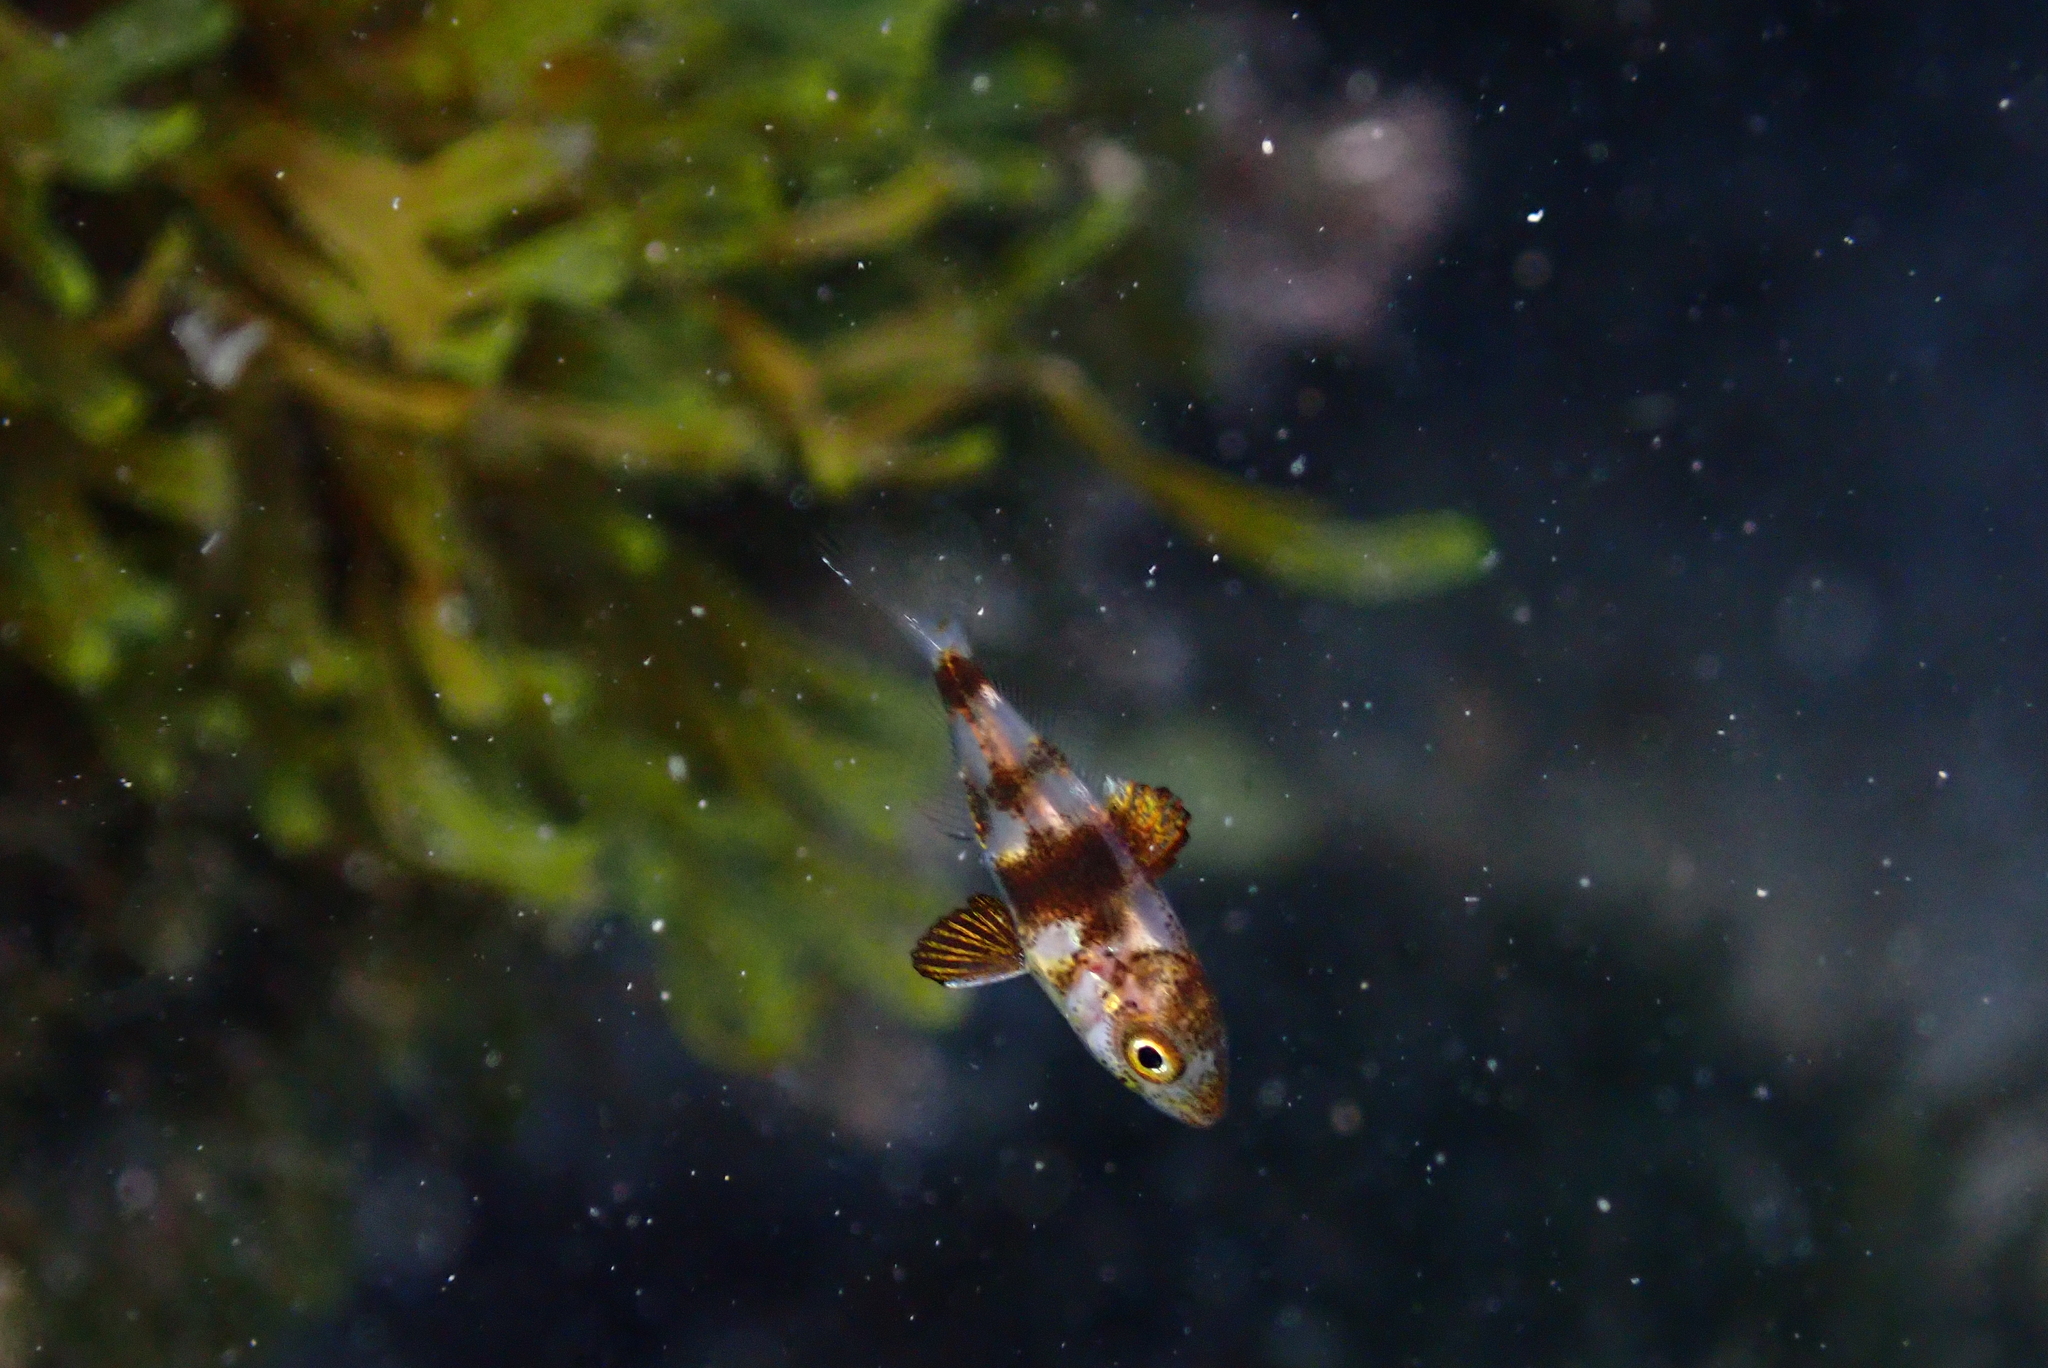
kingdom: Animalia
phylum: Chordata
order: Perciformes
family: Sparidae
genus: Diplodus
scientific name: Diplodus puntazzo
